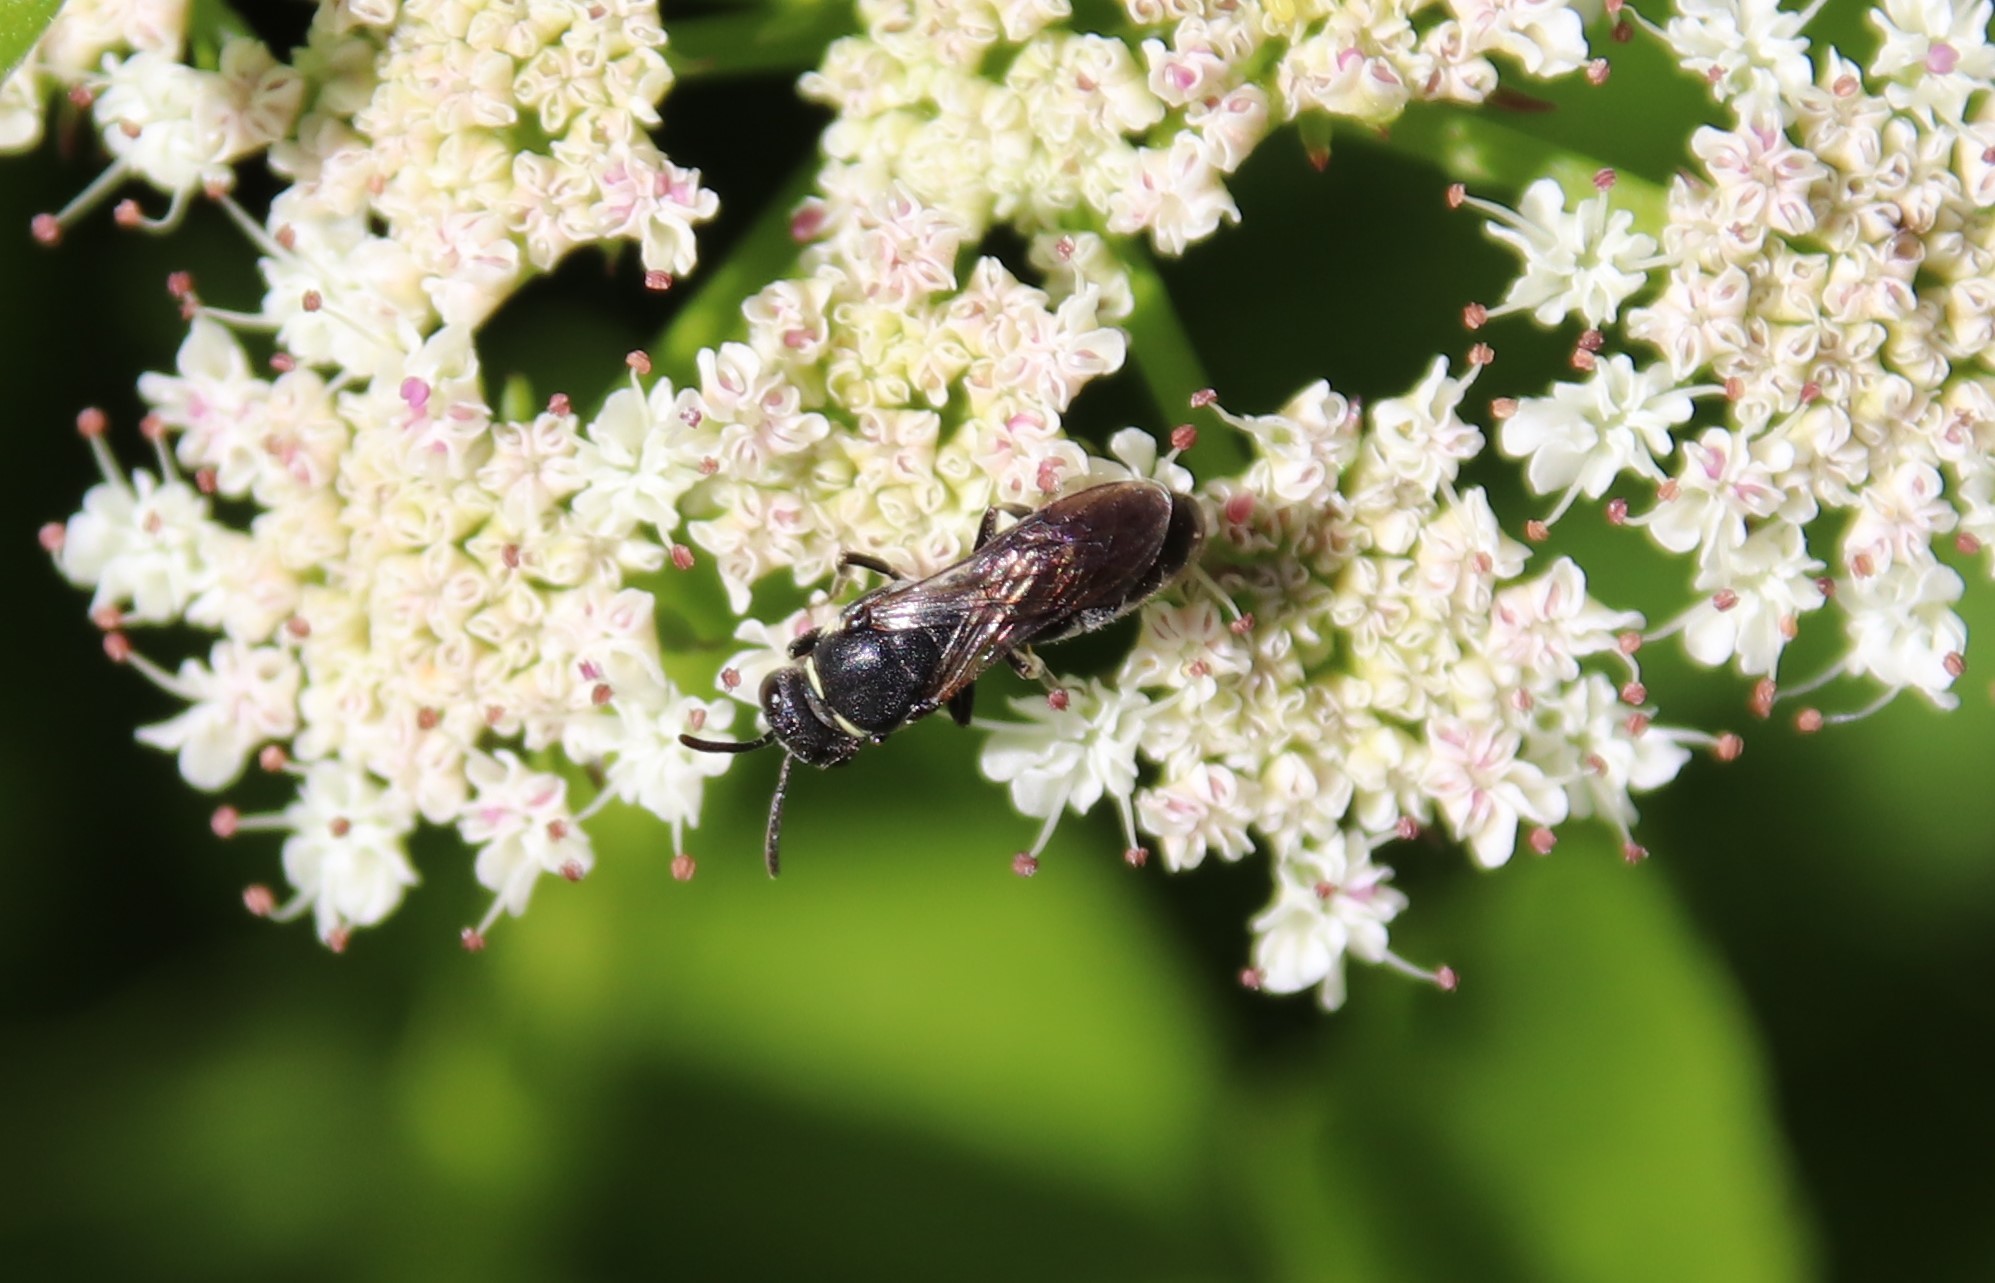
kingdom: Animalia
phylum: Arthropoda
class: Insecta
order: Hymenoptera
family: Colletidae
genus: Hylaeus
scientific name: Hylaeus
